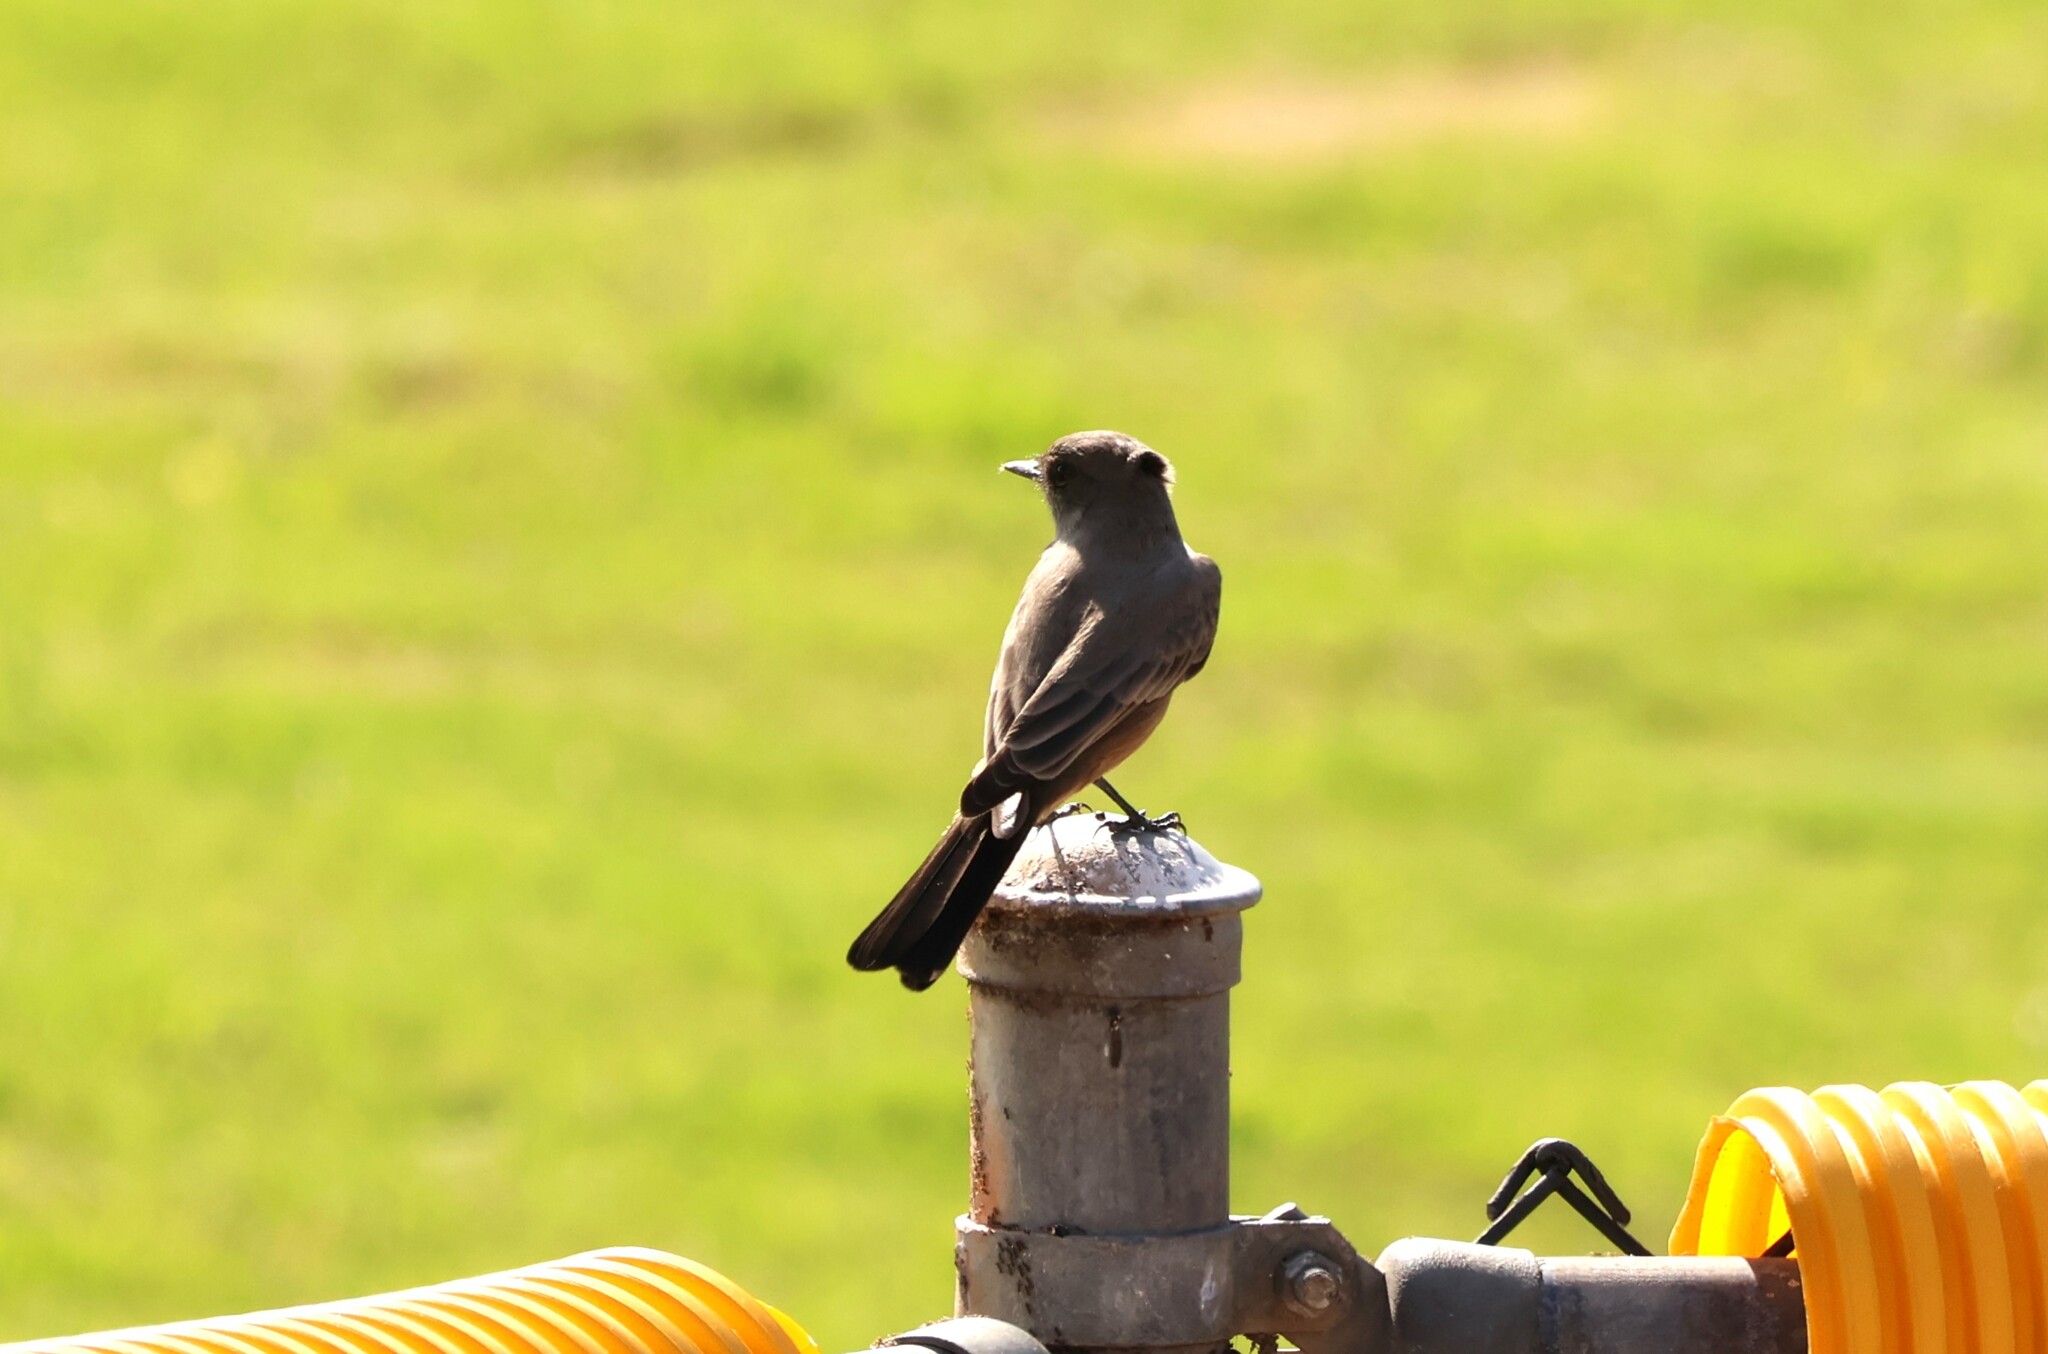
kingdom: Animalia
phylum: Chordata
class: Aves
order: Passeriformes
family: Tyrannidae
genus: Sayornis
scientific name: Sayornis saya
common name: Say's phoebe
